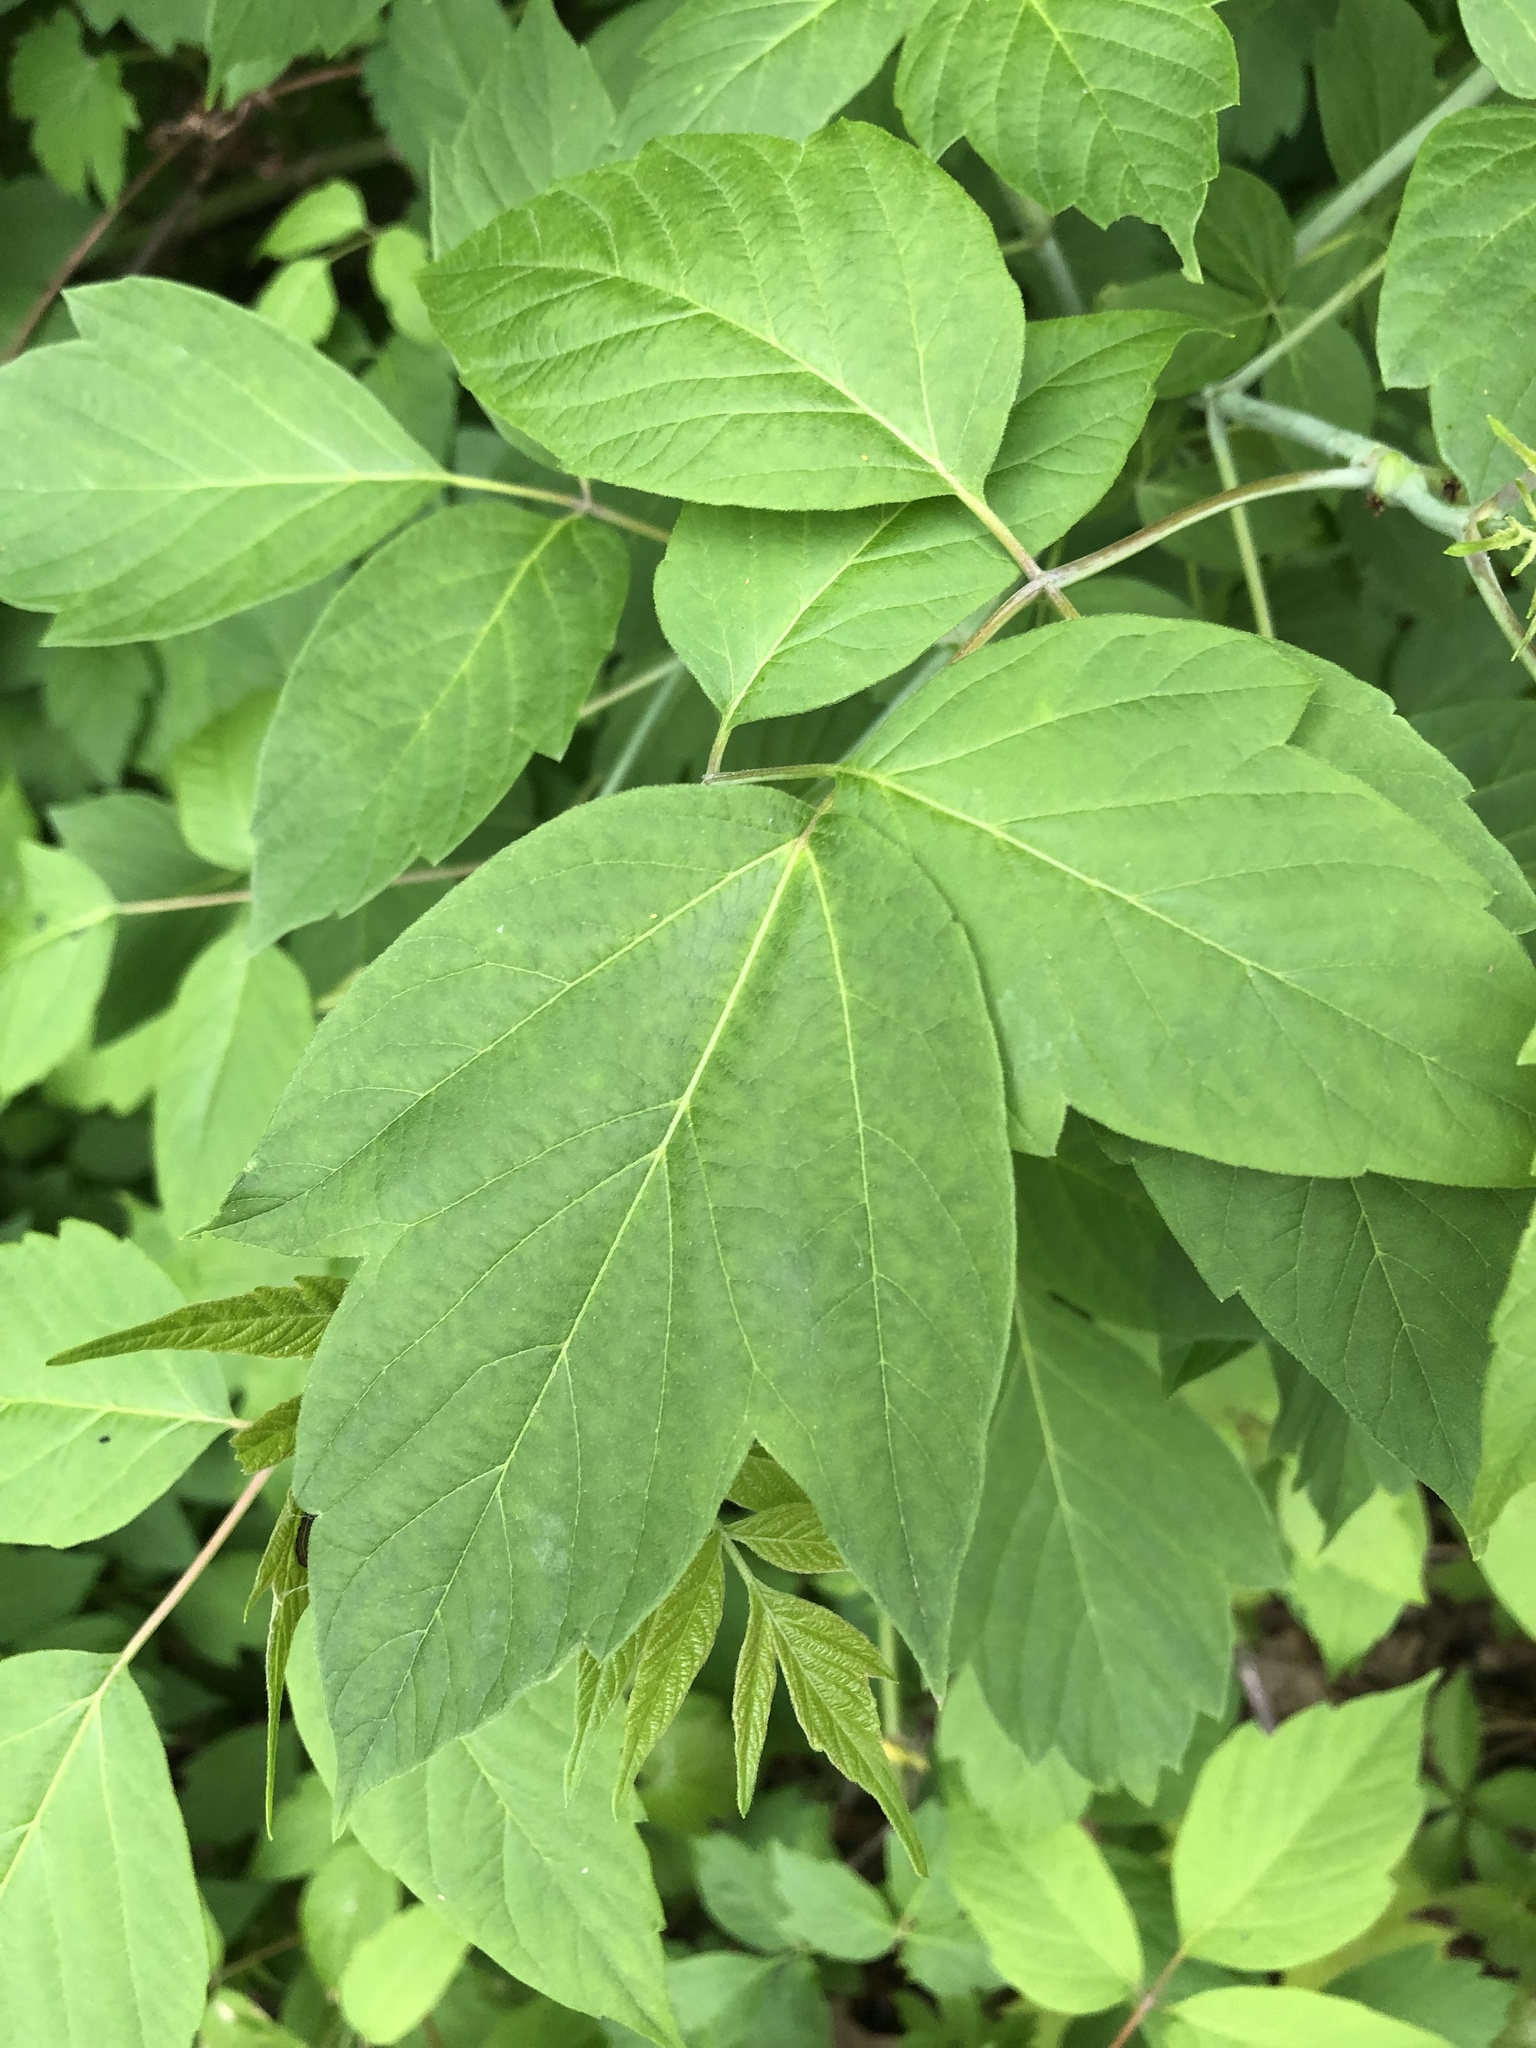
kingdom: Plantae
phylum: Tracheophyta
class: Magnoliopsida
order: Sapindales
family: Sapindaceae
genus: Acer
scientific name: Acer negundo
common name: Ashleaf maple
